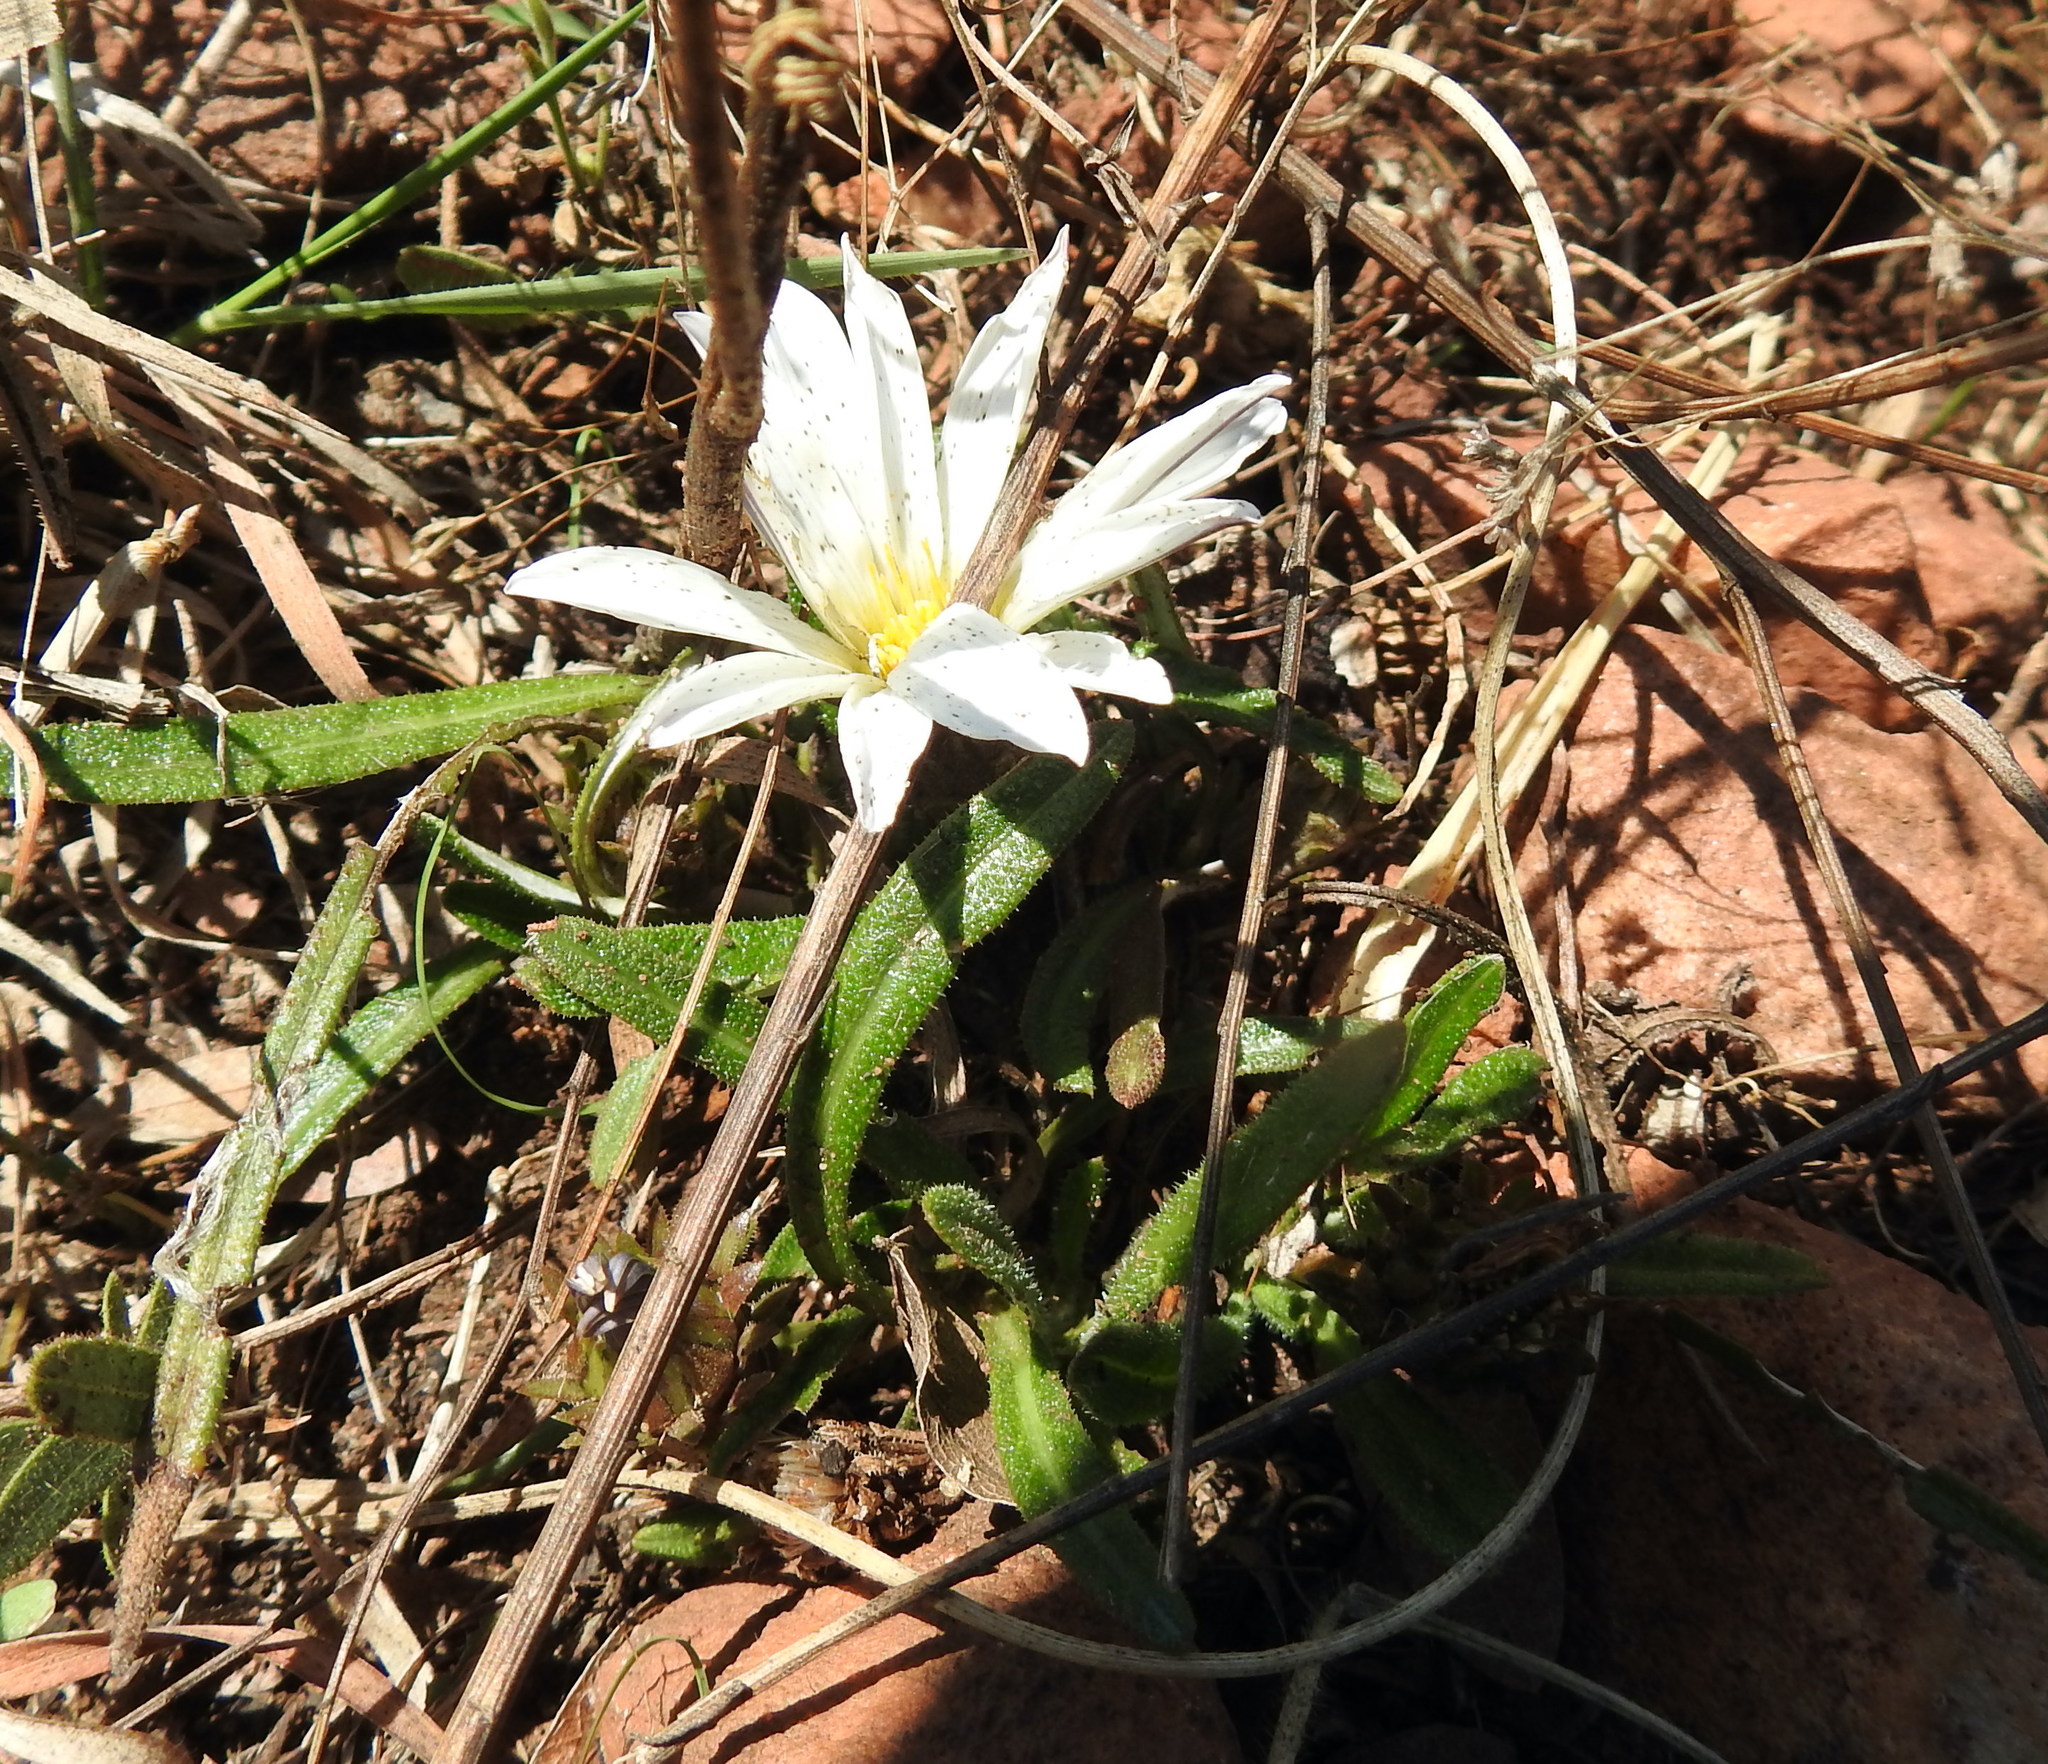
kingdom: Plantae
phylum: Tracheophyta
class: Magnoliopsida
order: Asterales
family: Asteraceae
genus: Gazania
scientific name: Gazania krebsiana
